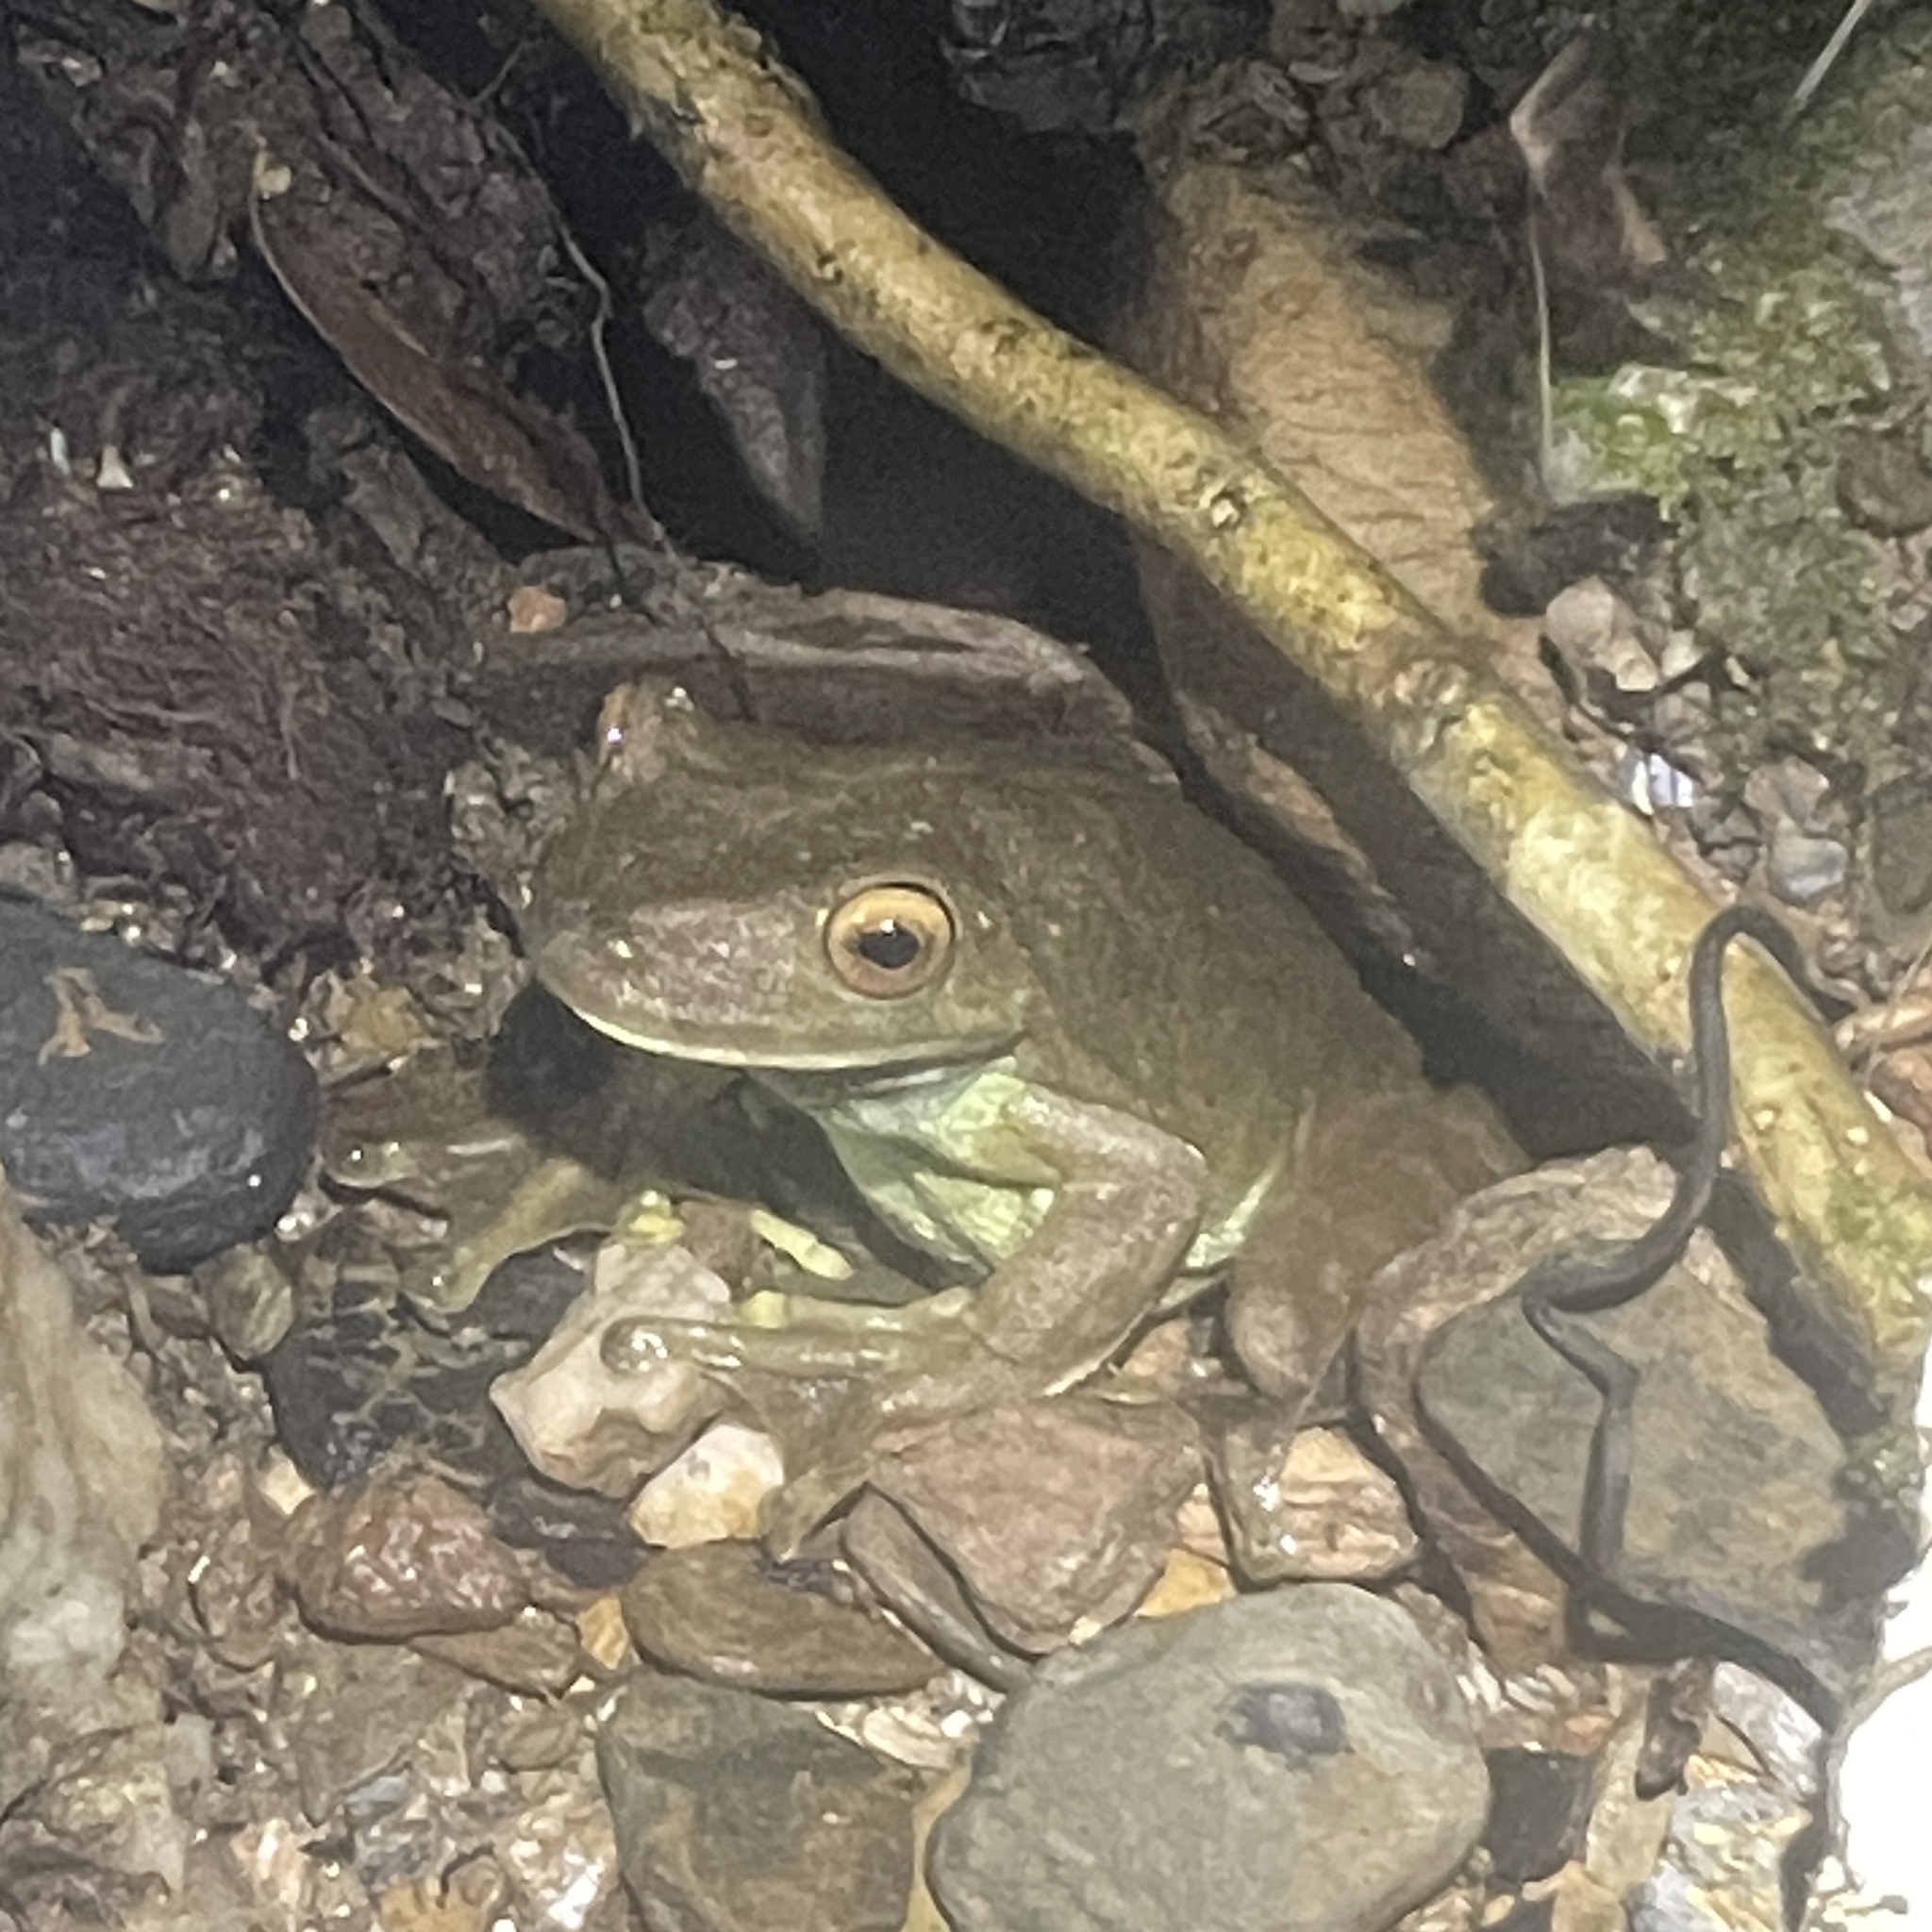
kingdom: Animalia
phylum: Chordata
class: Amphibia
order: Anura
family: Hylidae
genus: Boana
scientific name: Boana boans
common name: Giant gladiator treefrog
